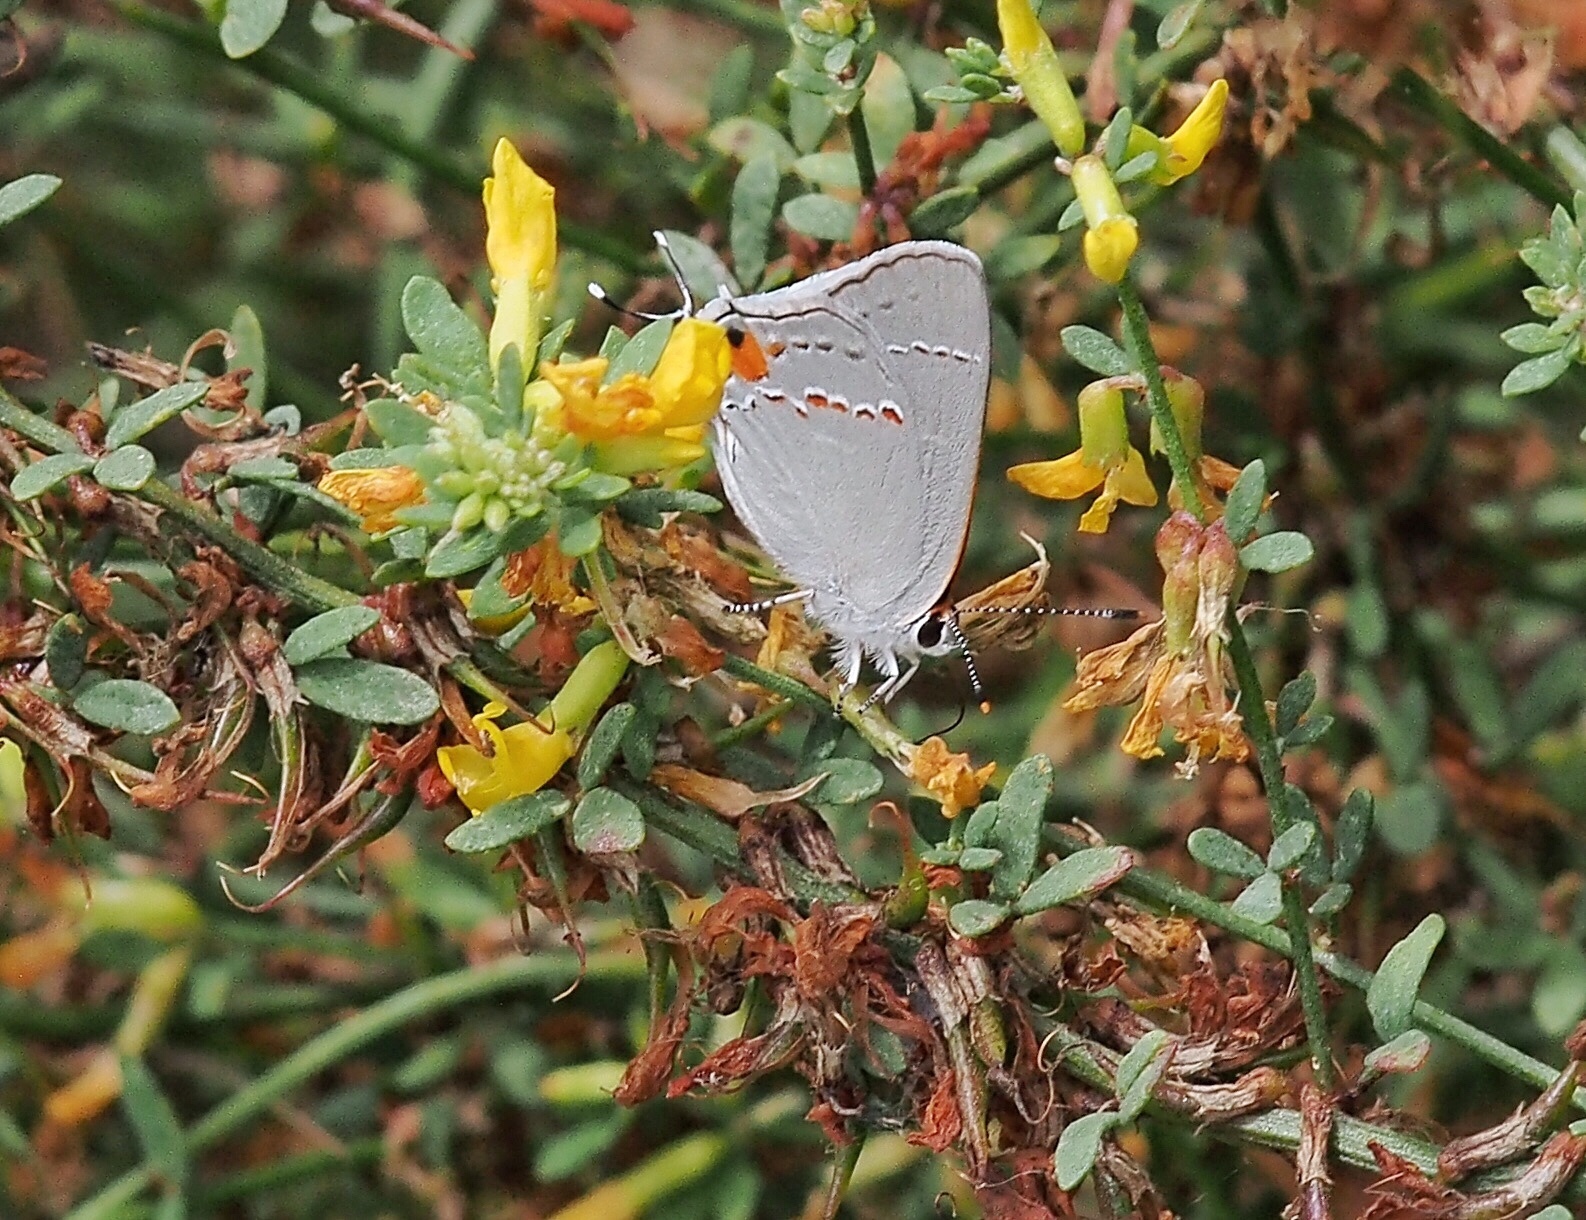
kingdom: Animalia
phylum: Arthropoda
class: Insecta
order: Lepidoptera
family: Lycaenidae
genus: Strymon
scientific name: Strymon melinus
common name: Gray hairstreak
